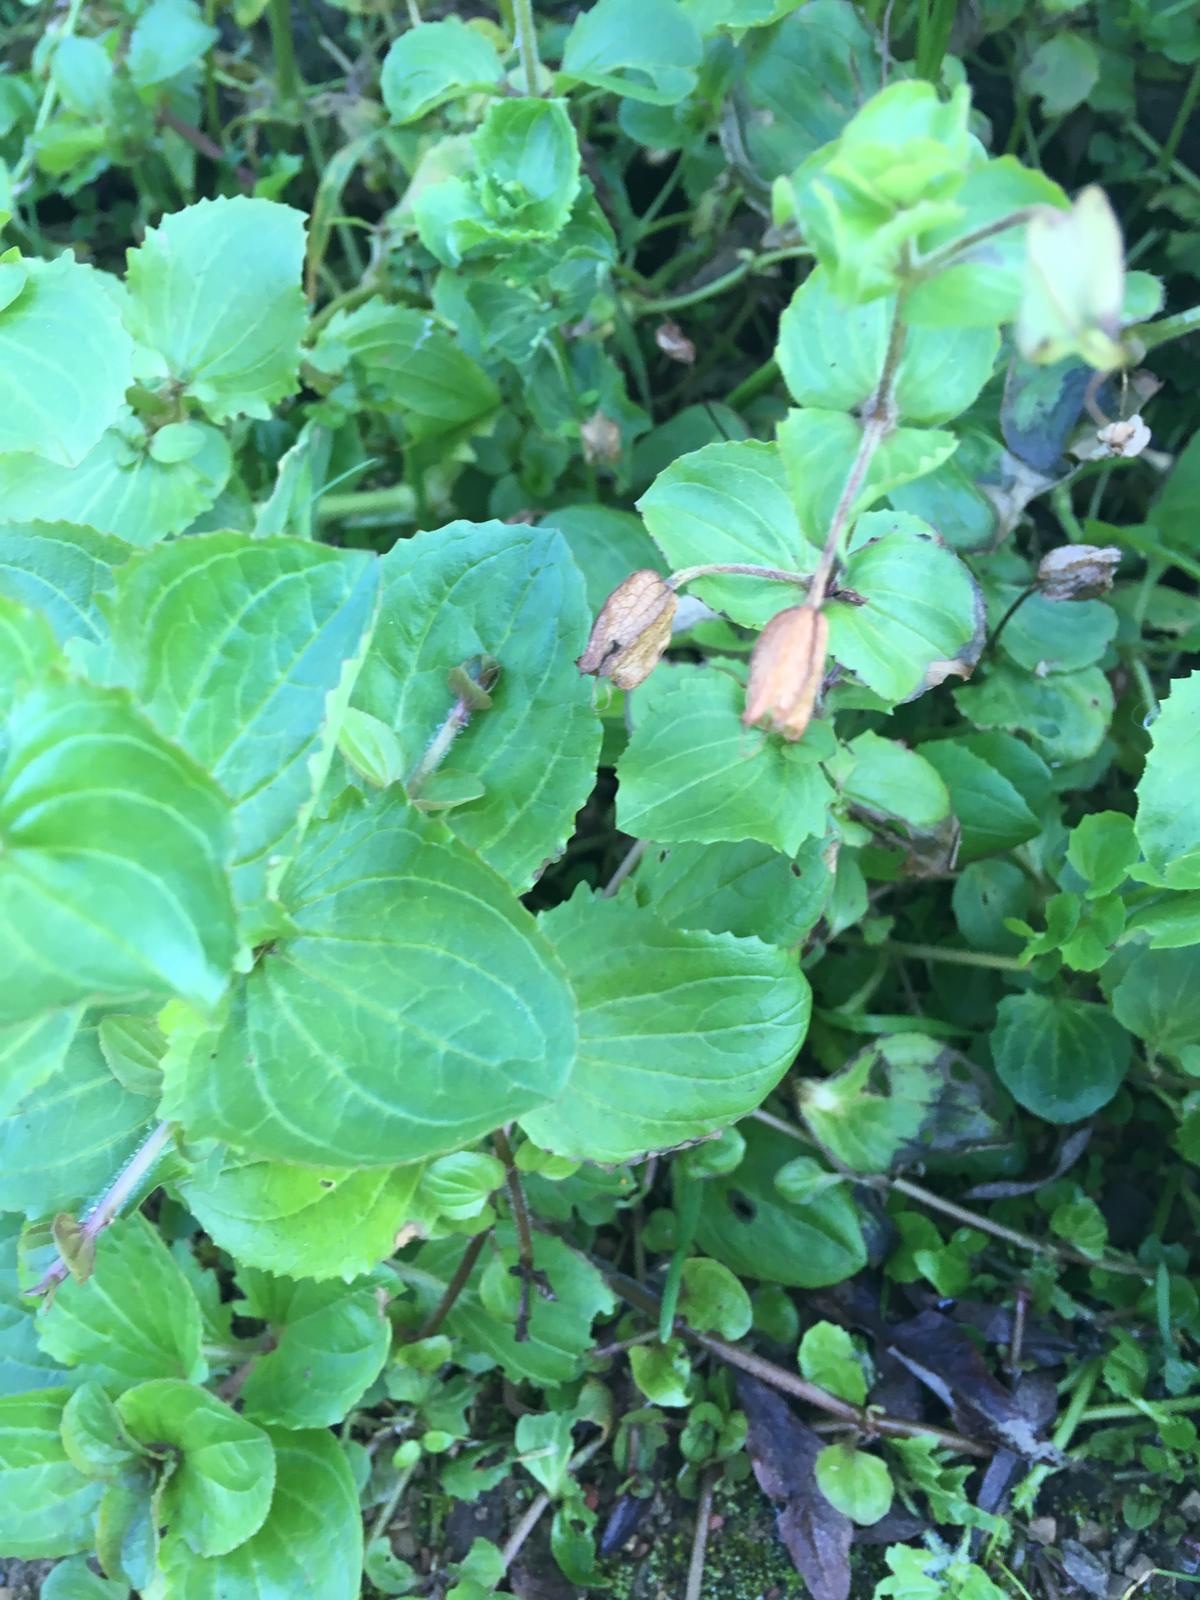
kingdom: Plantae
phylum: Tracheophyta
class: Magnoliopsida
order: Lamiales
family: Phrymaceae
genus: Erythranthe
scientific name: Erythranthe guttata
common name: Monkeyflower
